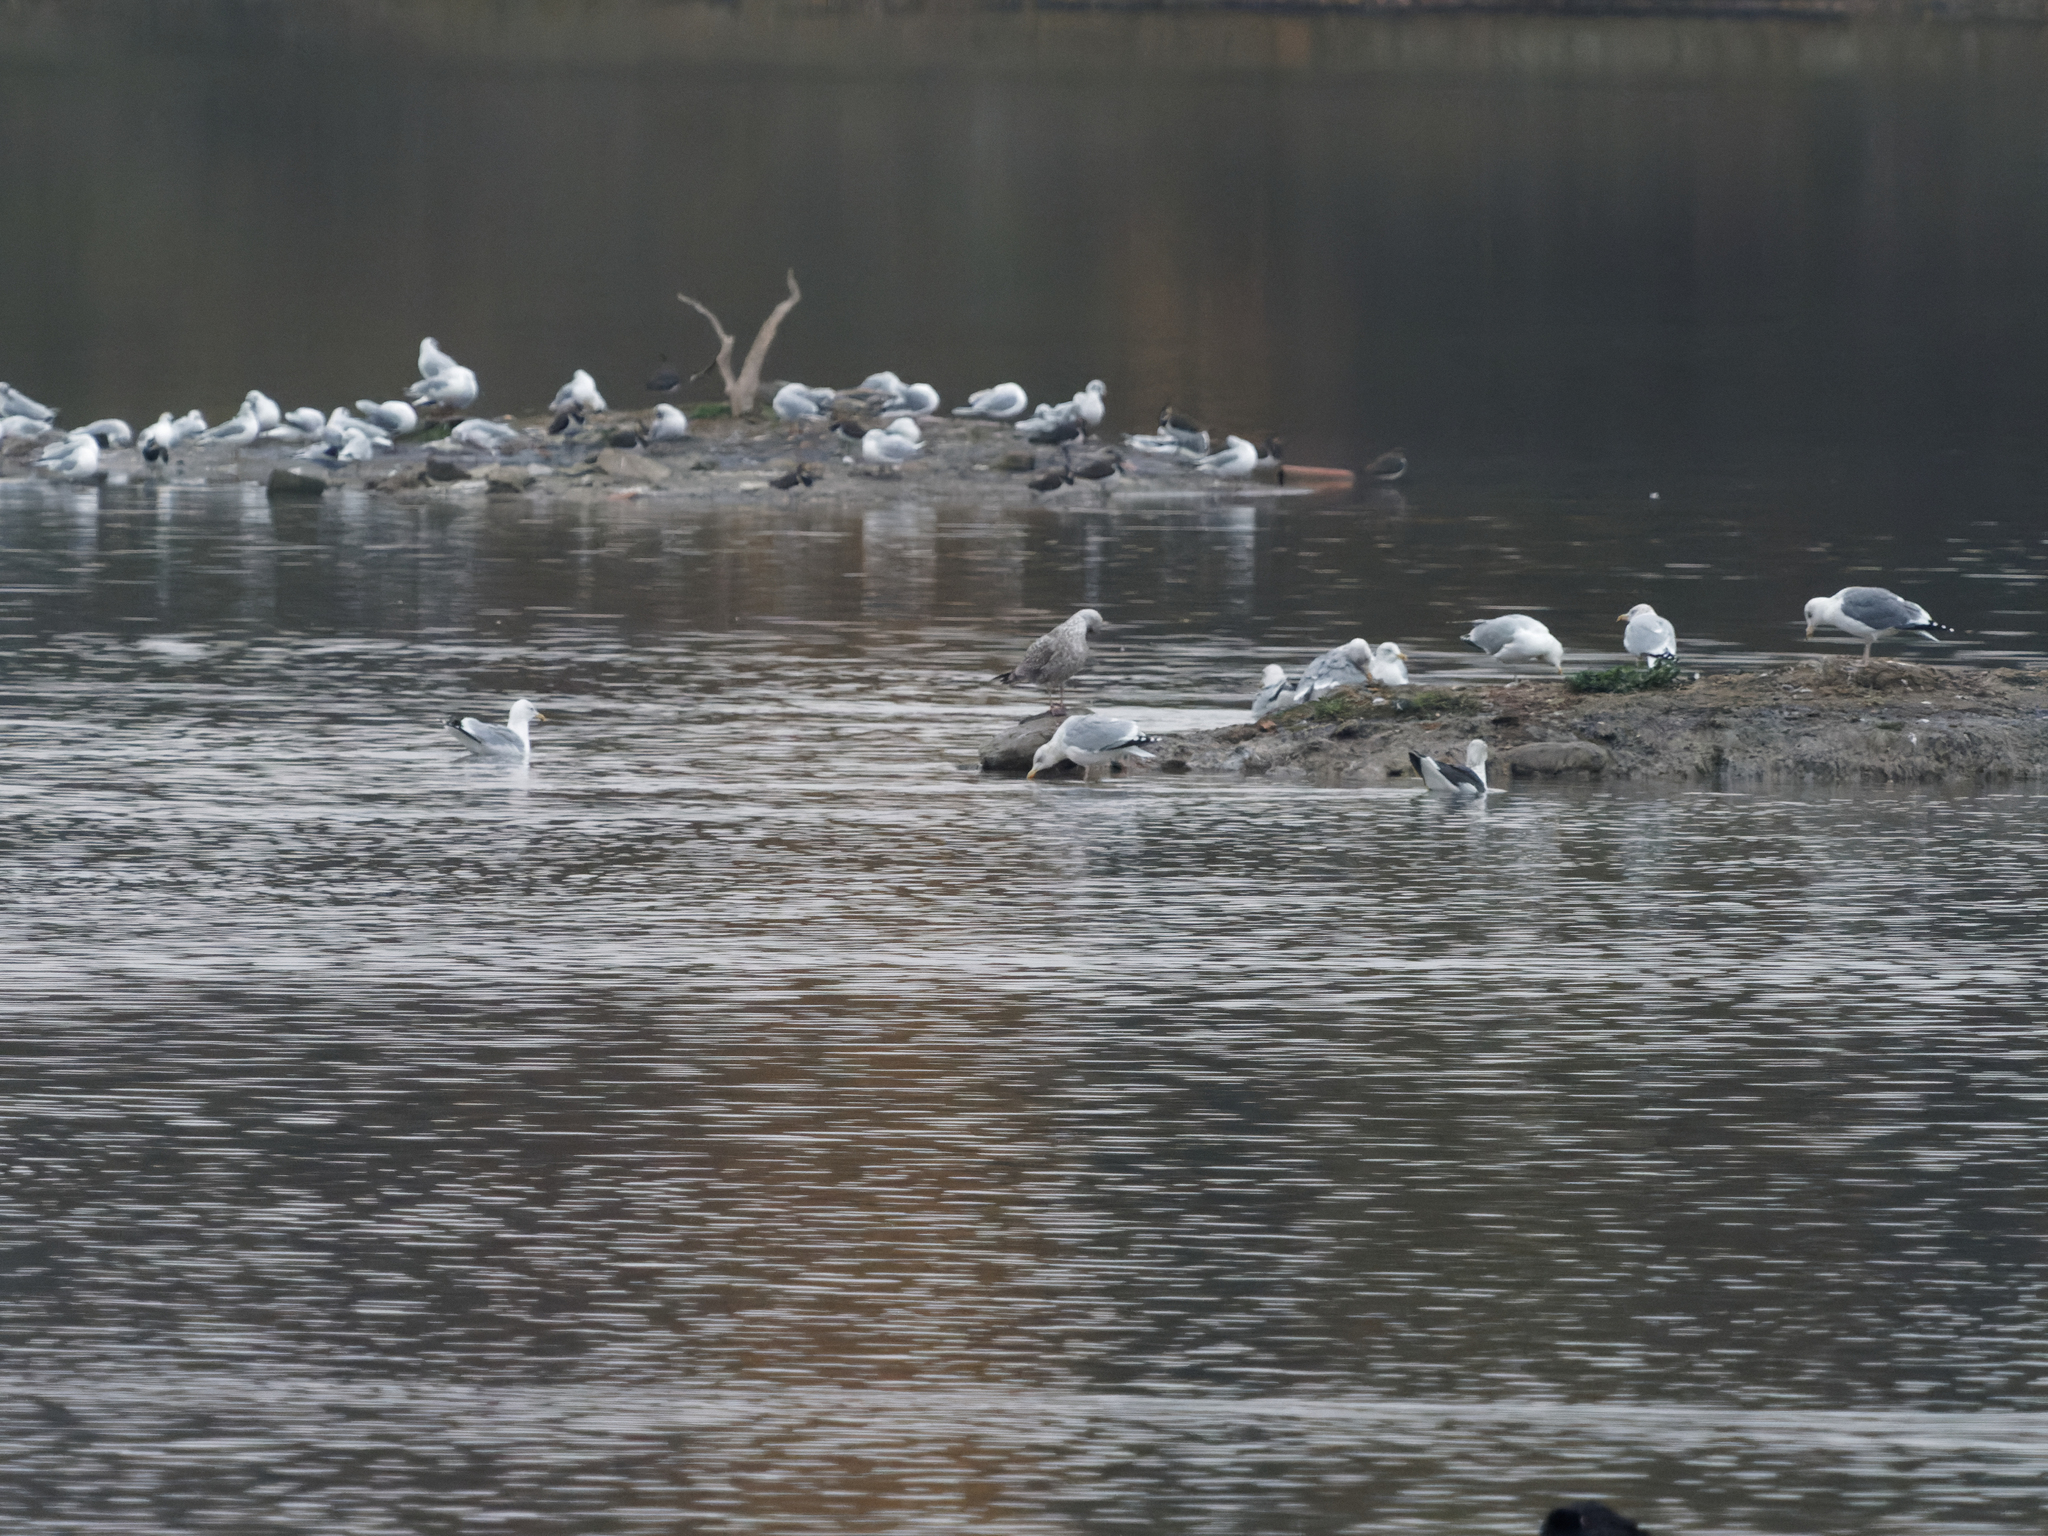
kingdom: Animalia
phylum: Chordata
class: Aves
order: Charadriiformes
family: Laridae
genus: Larus
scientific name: Larus argentatus
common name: Herring gull
